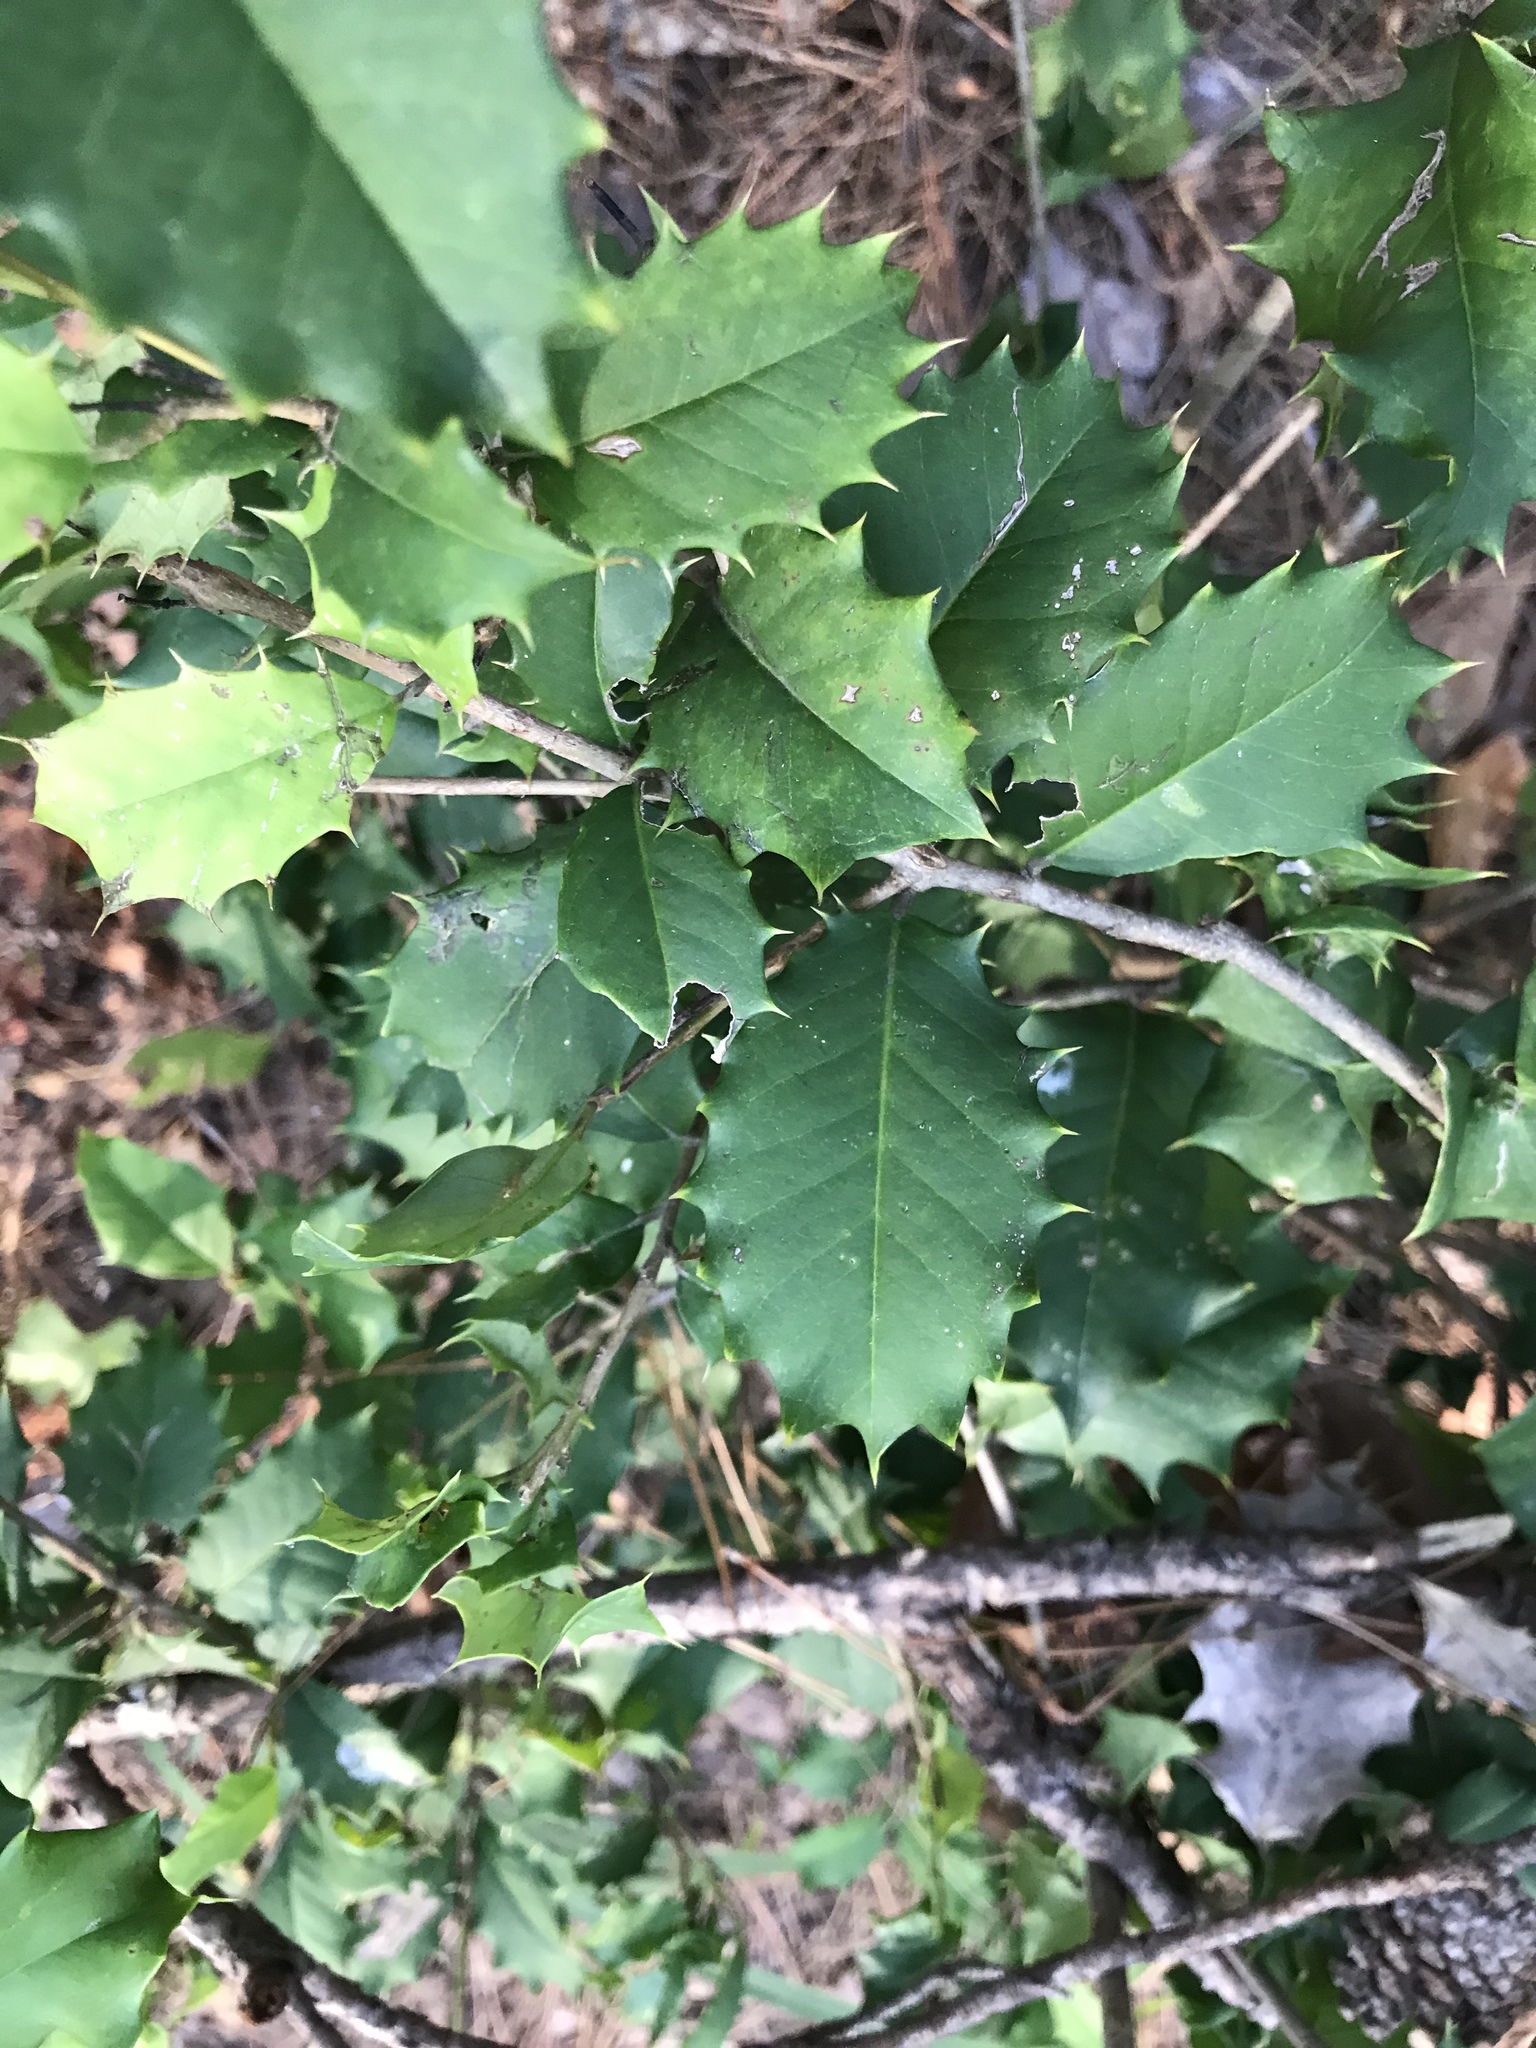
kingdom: Plantae
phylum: Tracheophyta
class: Magnoliopsida
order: Aquifoliales
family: Aquifoliaceae
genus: Ilex
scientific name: Ilex opaca
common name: American holly
